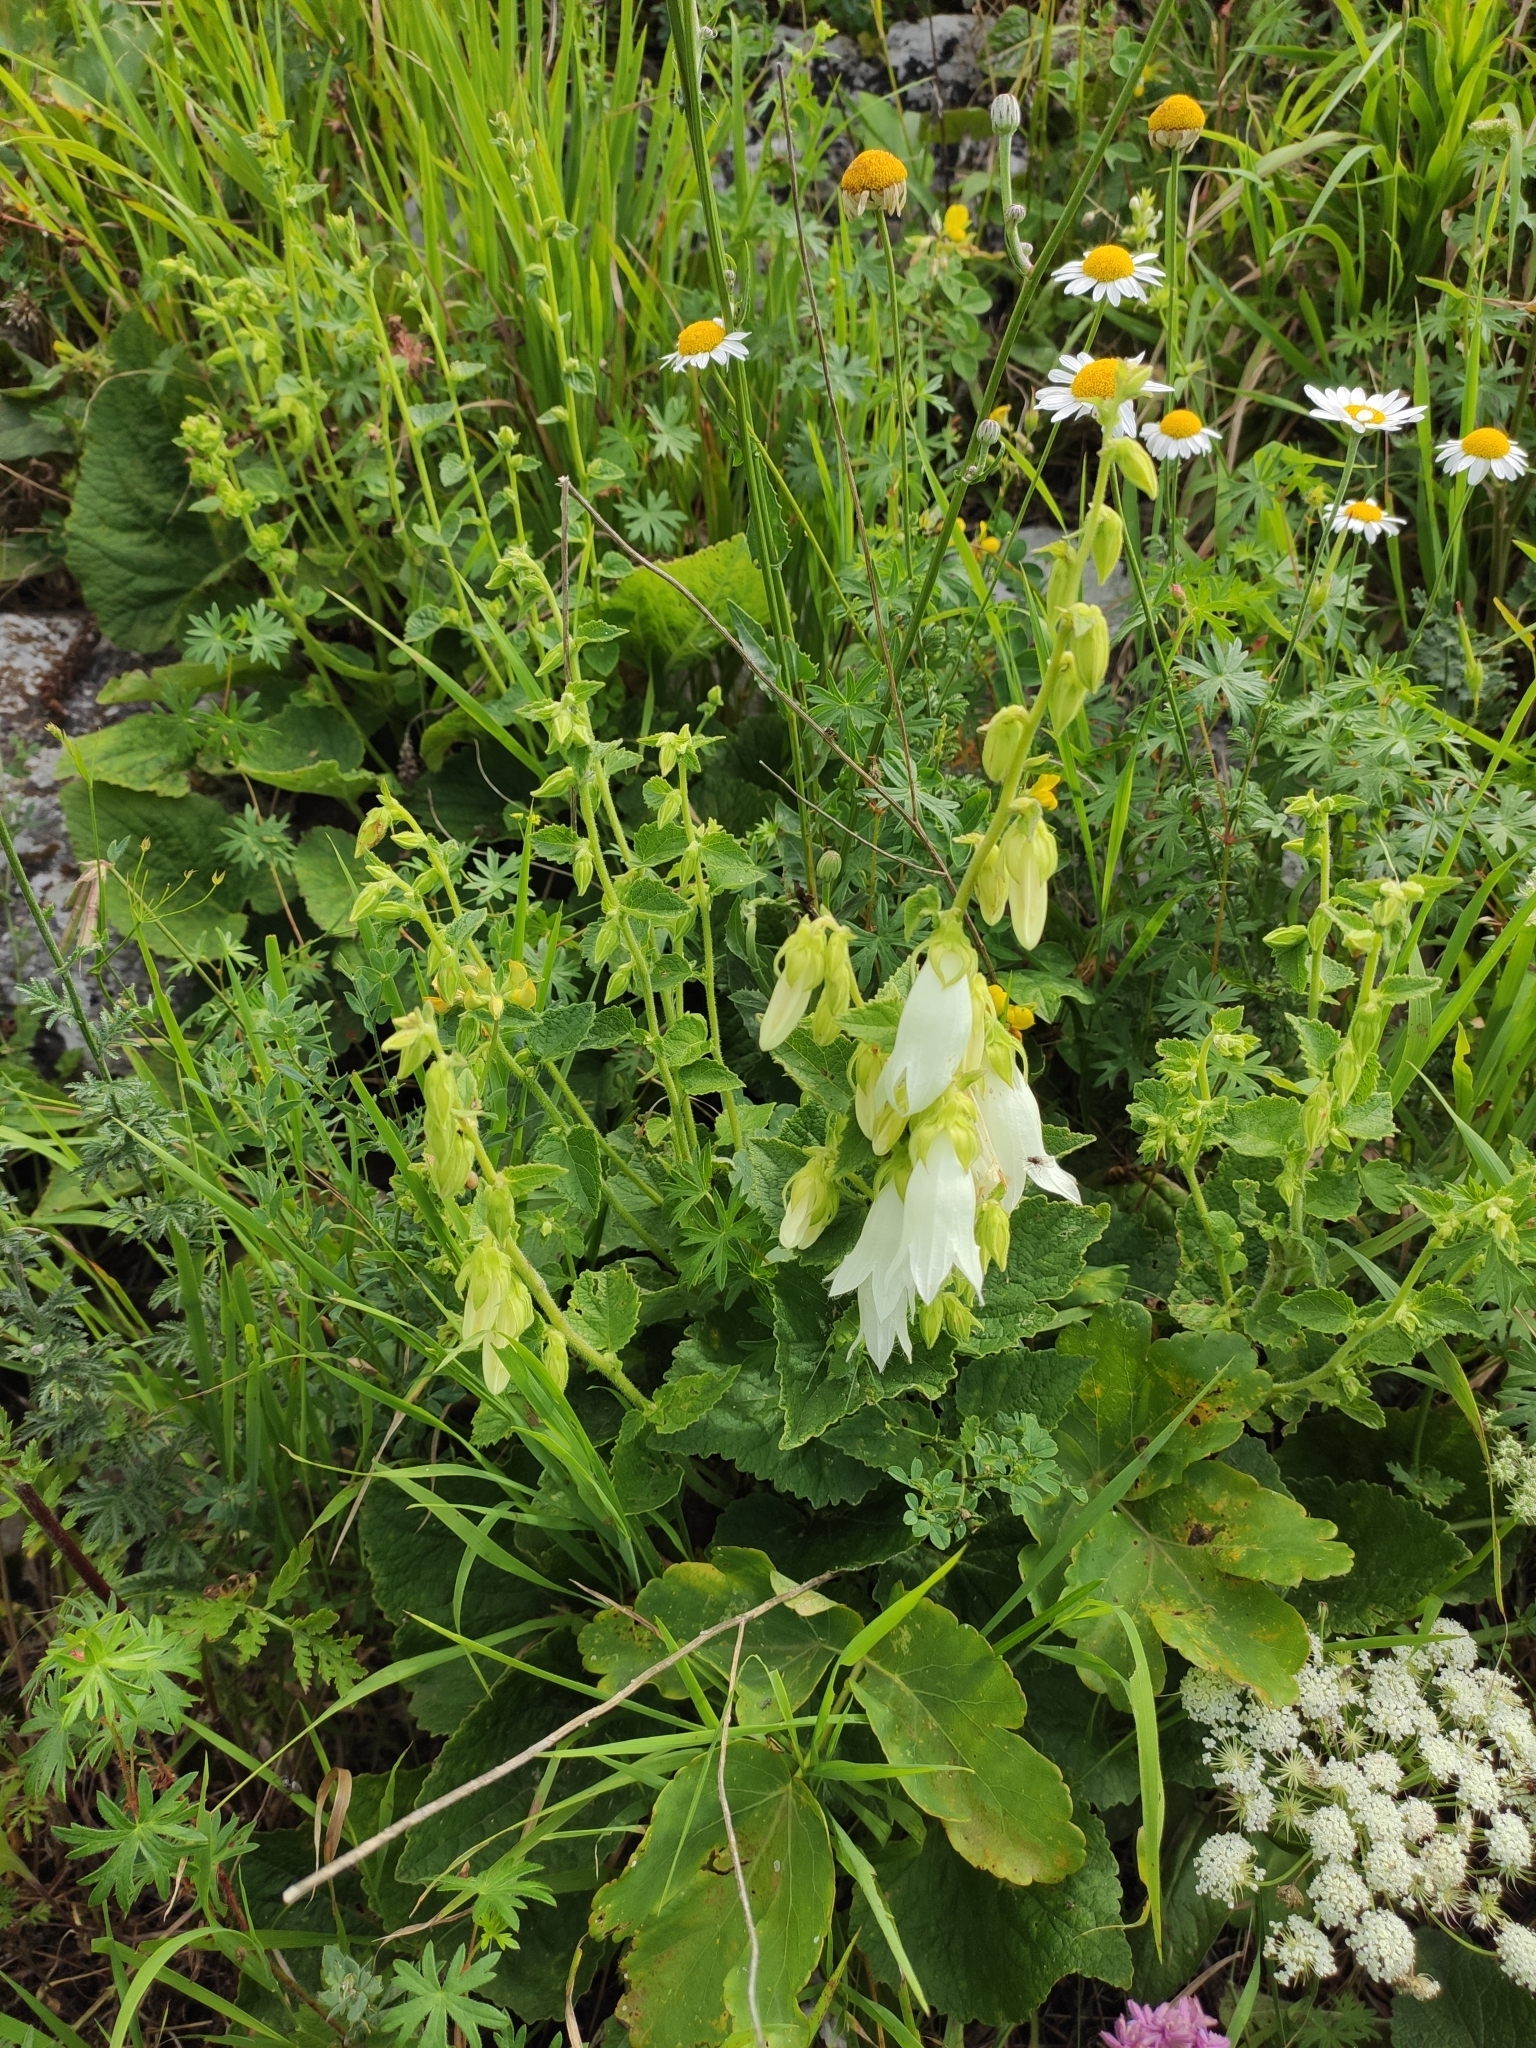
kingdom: Plantae
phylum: Tracheophyta
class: Magnoliopsida
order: Asterales
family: Campanulaceae
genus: Campanula
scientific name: Campanula alliariifolia
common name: Cornish bellflower
